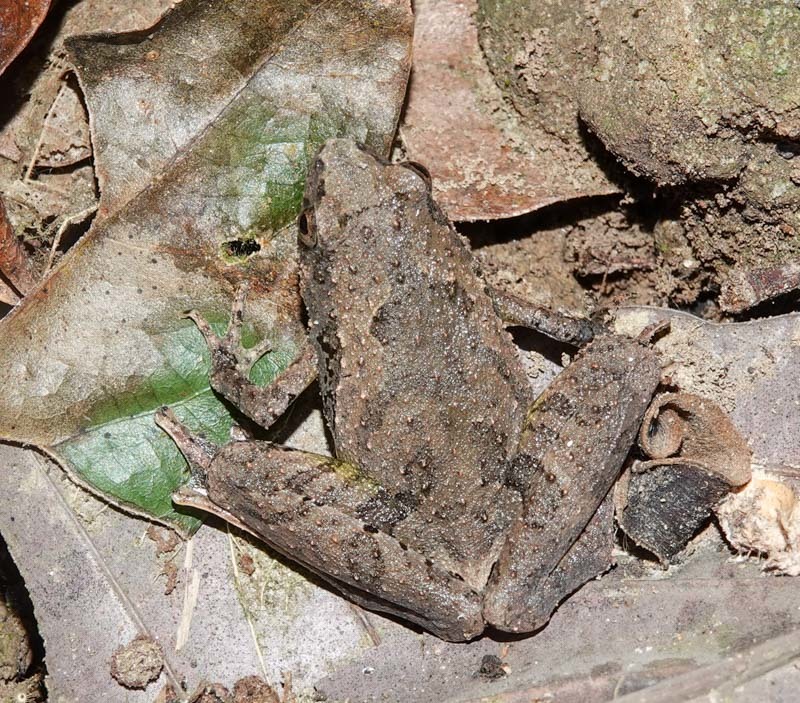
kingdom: Animalia
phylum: Chordata
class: Amphibia
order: Anura
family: Microhylidae
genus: Microhyla
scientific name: Microhyla berdmorei
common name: Berdmore’s narrow-mouthed frog,large pygmy frog
